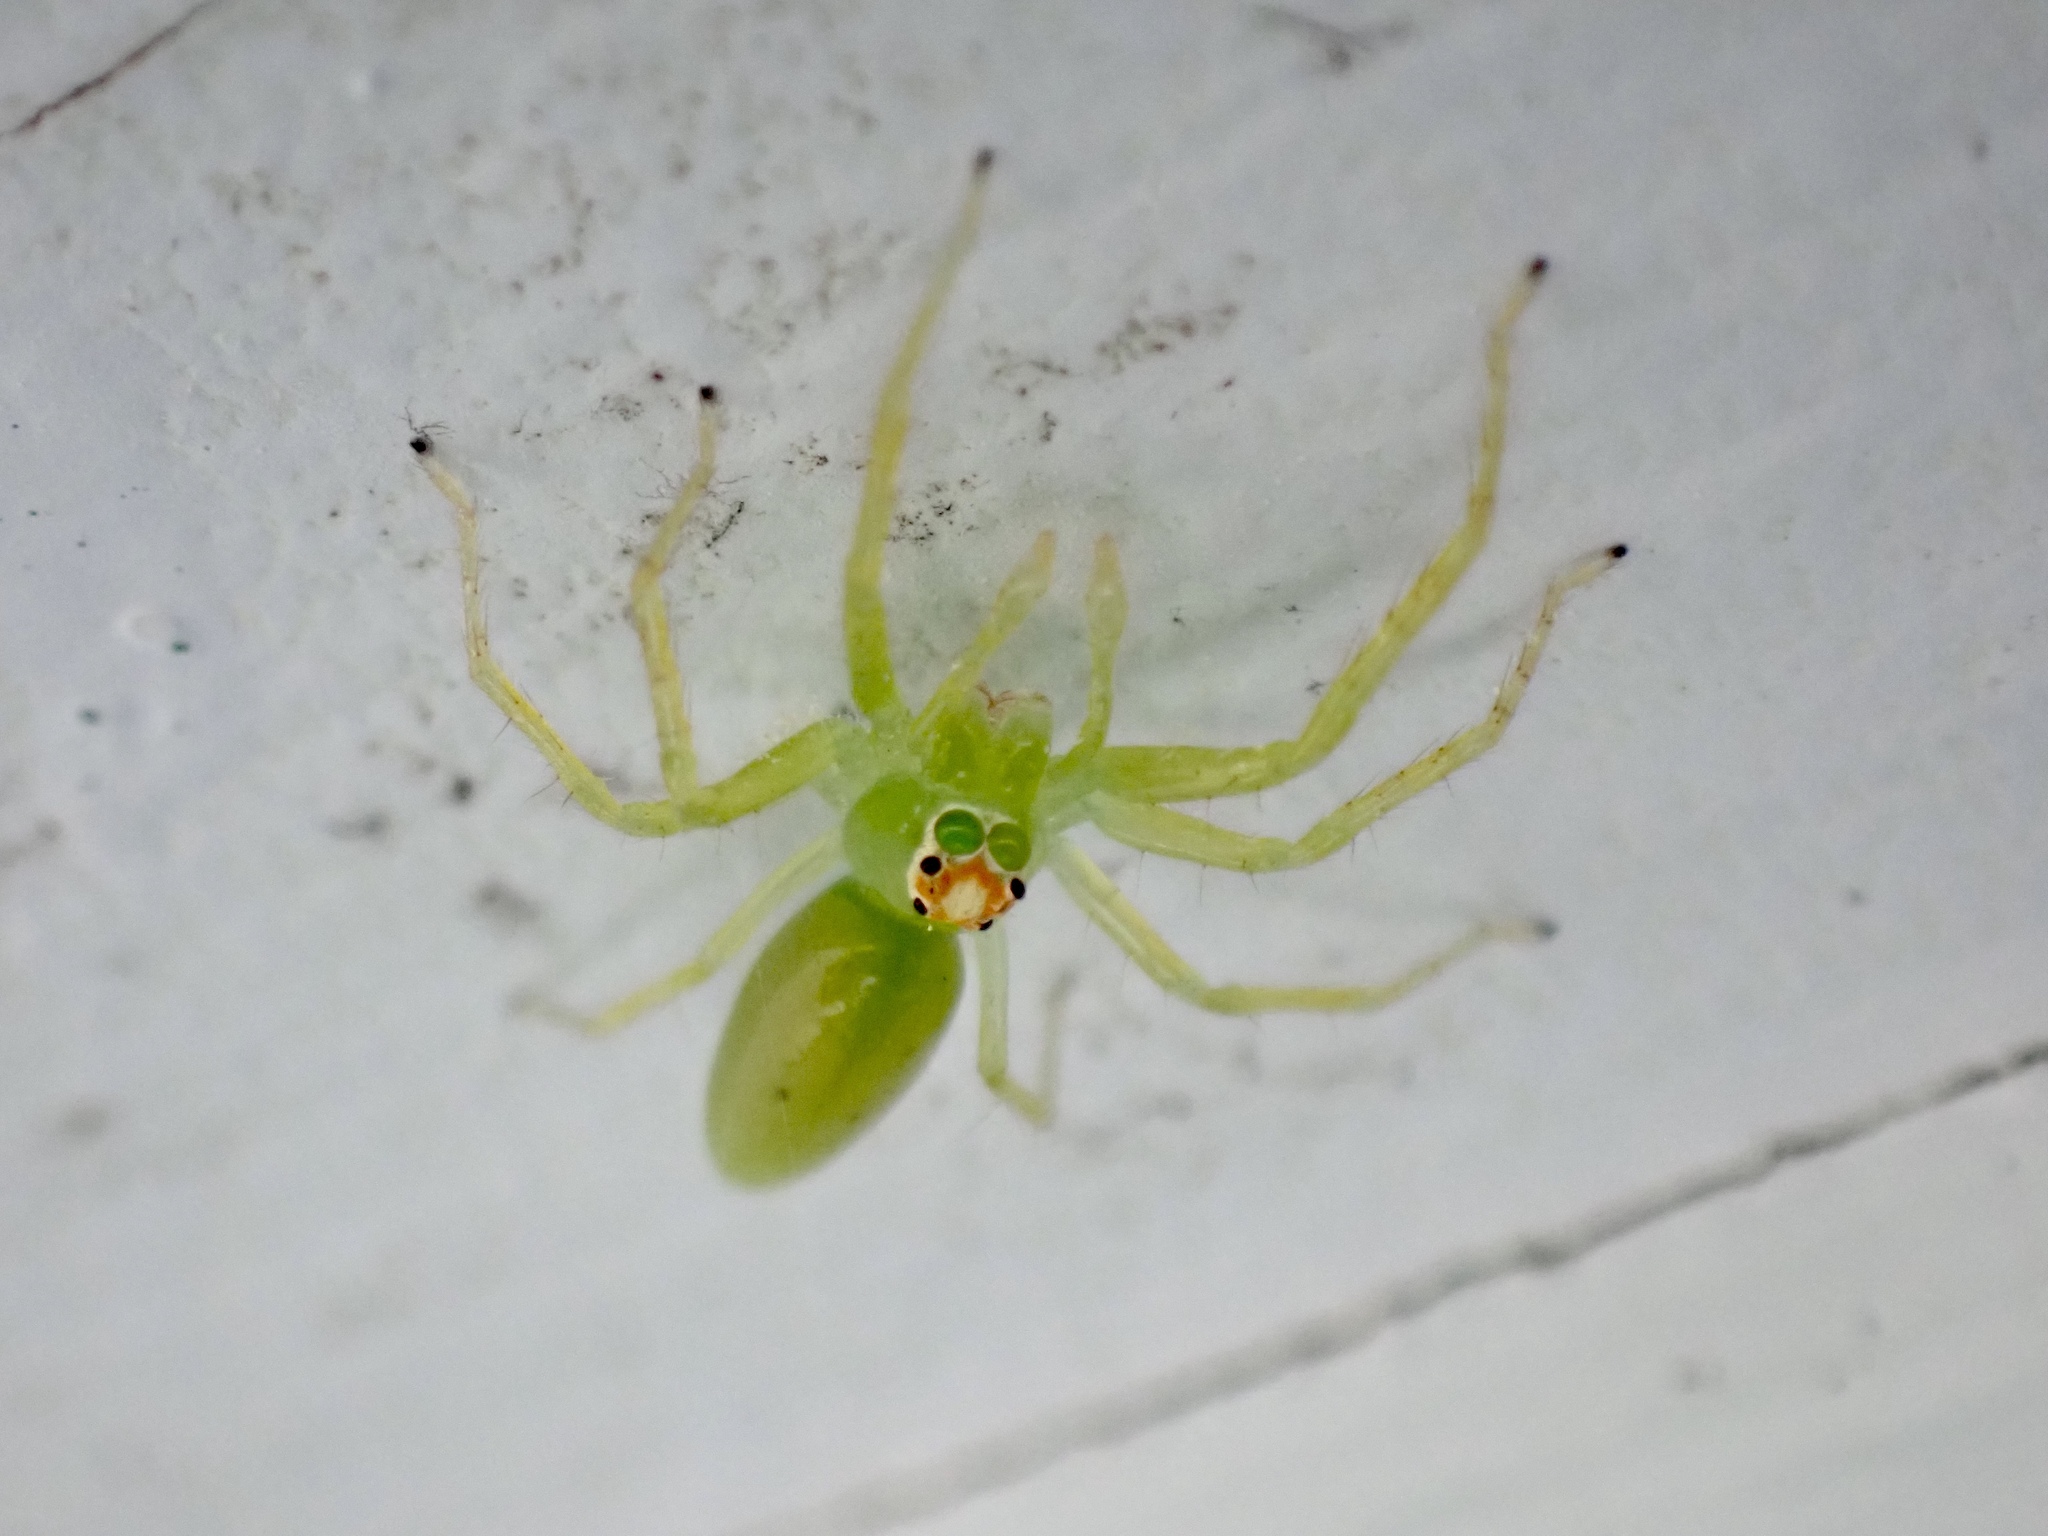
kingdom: Animalia
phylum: Arthropoda
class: Arachnida
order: Araneae
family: Salticidae
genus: Lyssomanes
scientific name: Lyssomanes viridis
